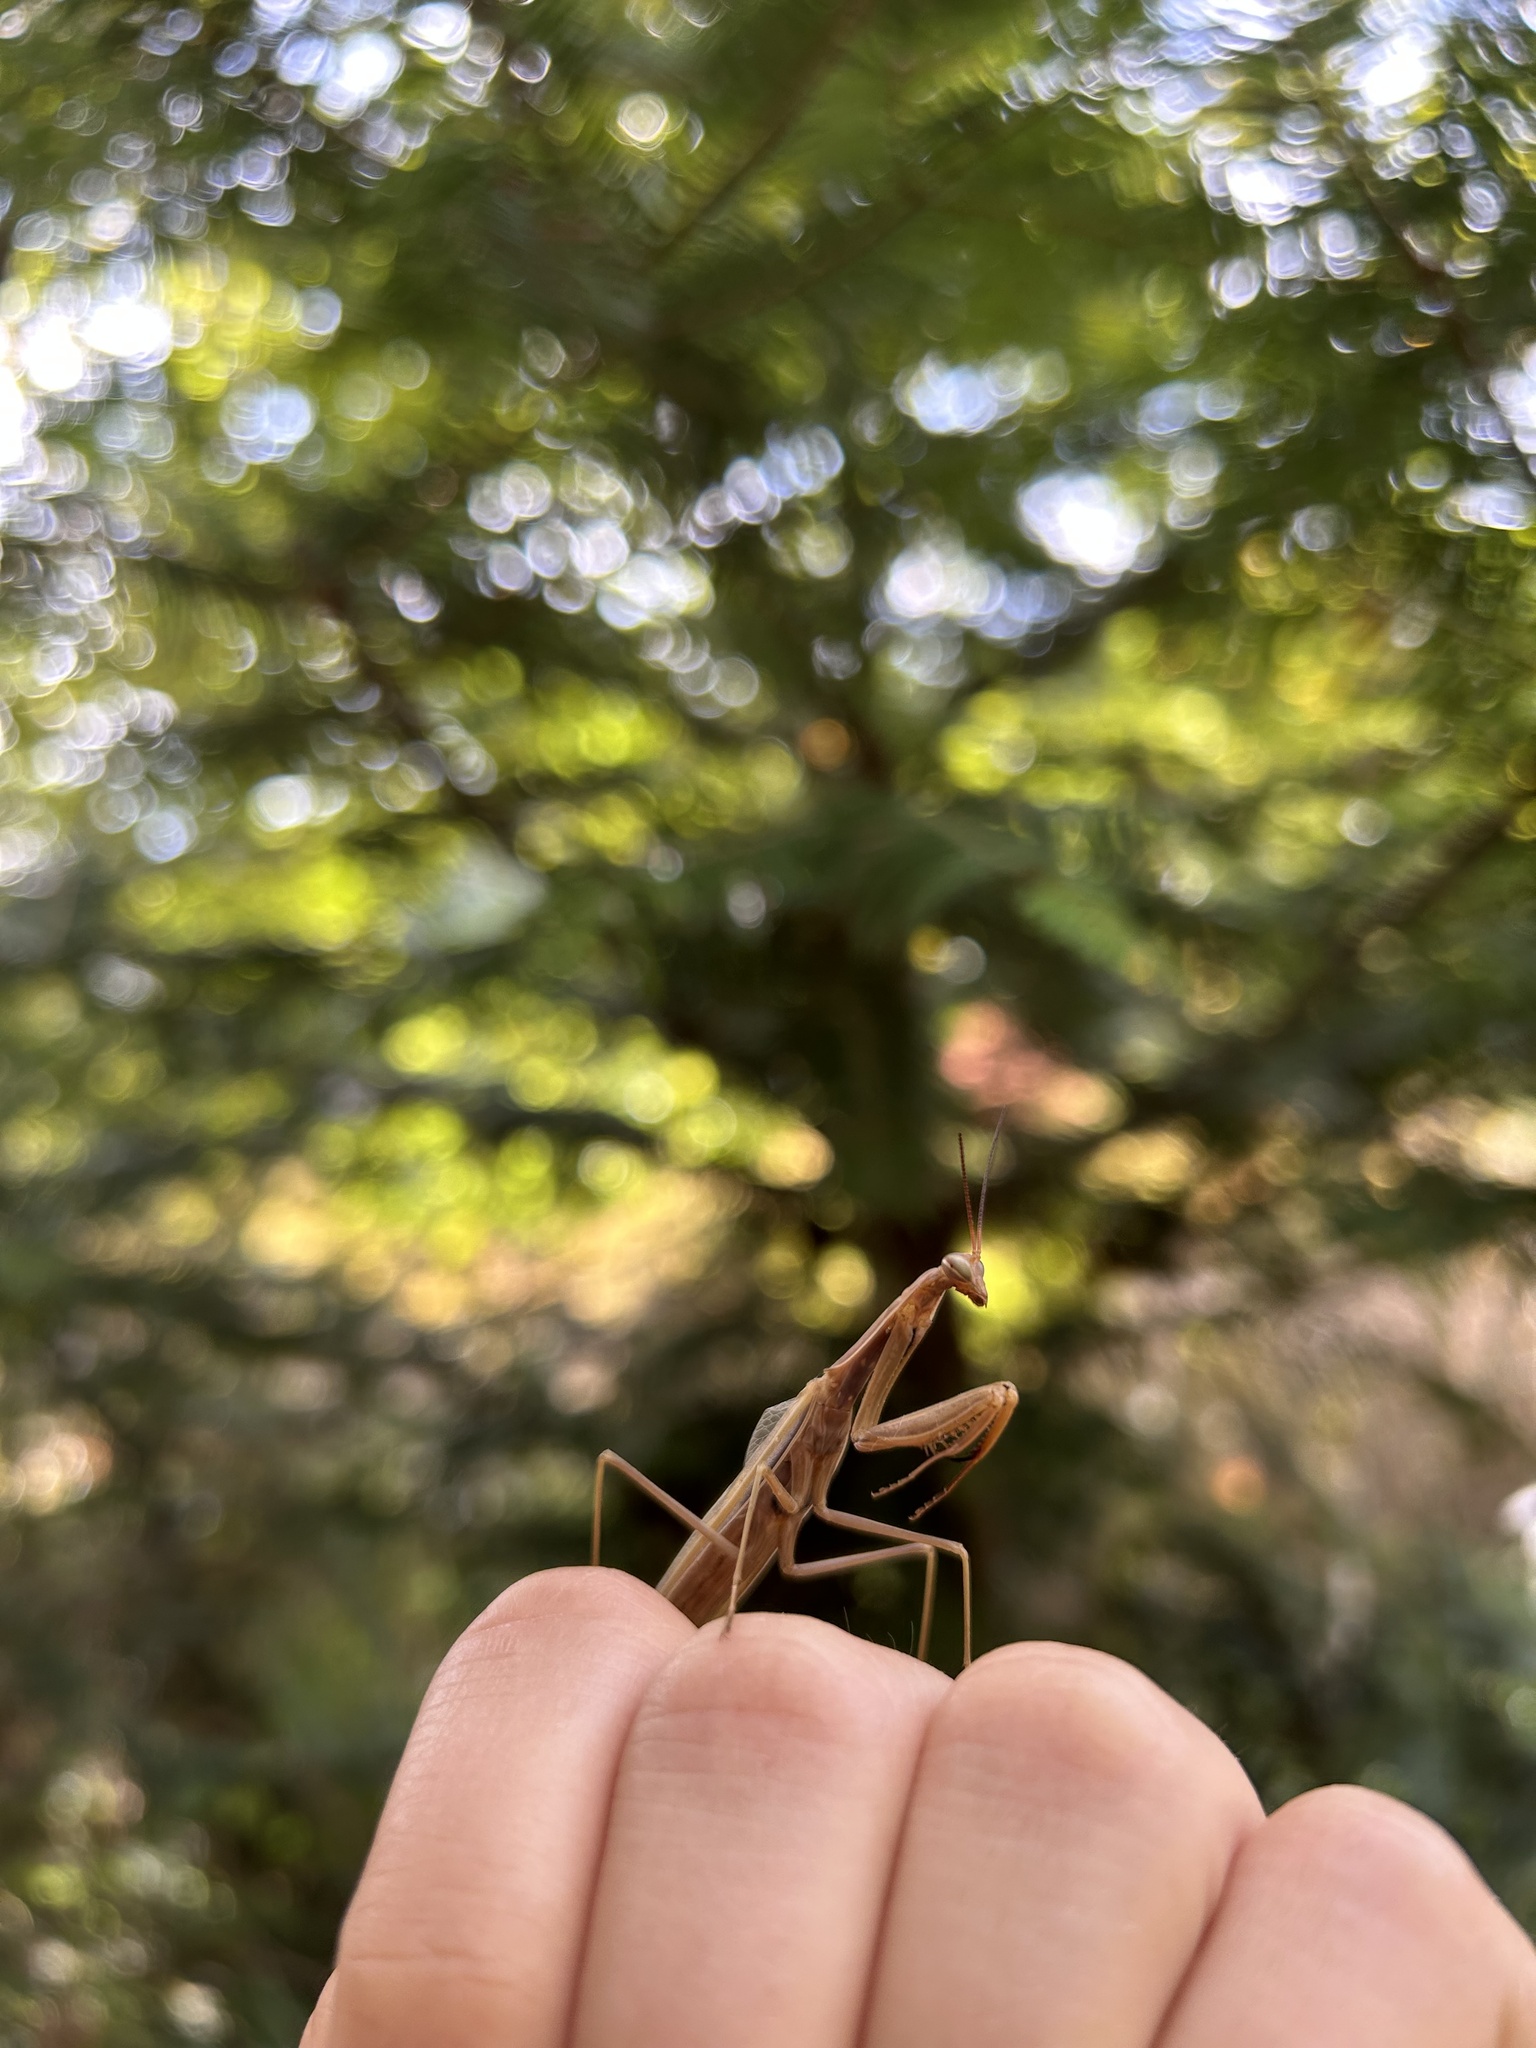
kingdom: Animalia
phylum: Arthropoda
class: Insecta
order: Mantodea
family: Mantidae
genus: Mantis
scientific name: Mantis religiosa
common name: Praying mantis
